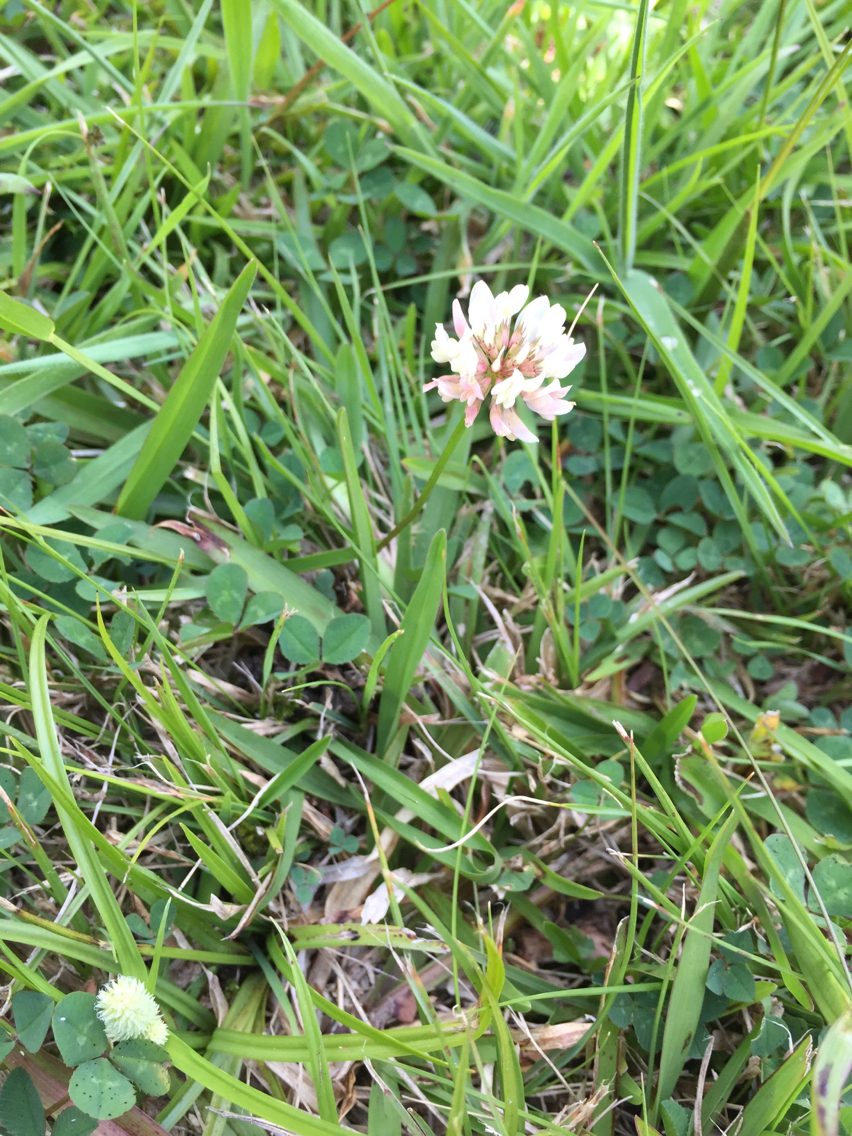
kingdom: Plantae
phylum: Tracheophyta
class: Magnoliopsida
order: Fabales
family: Fabaceae
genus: Trifolium
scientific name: Trifolium repens
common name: White clover
